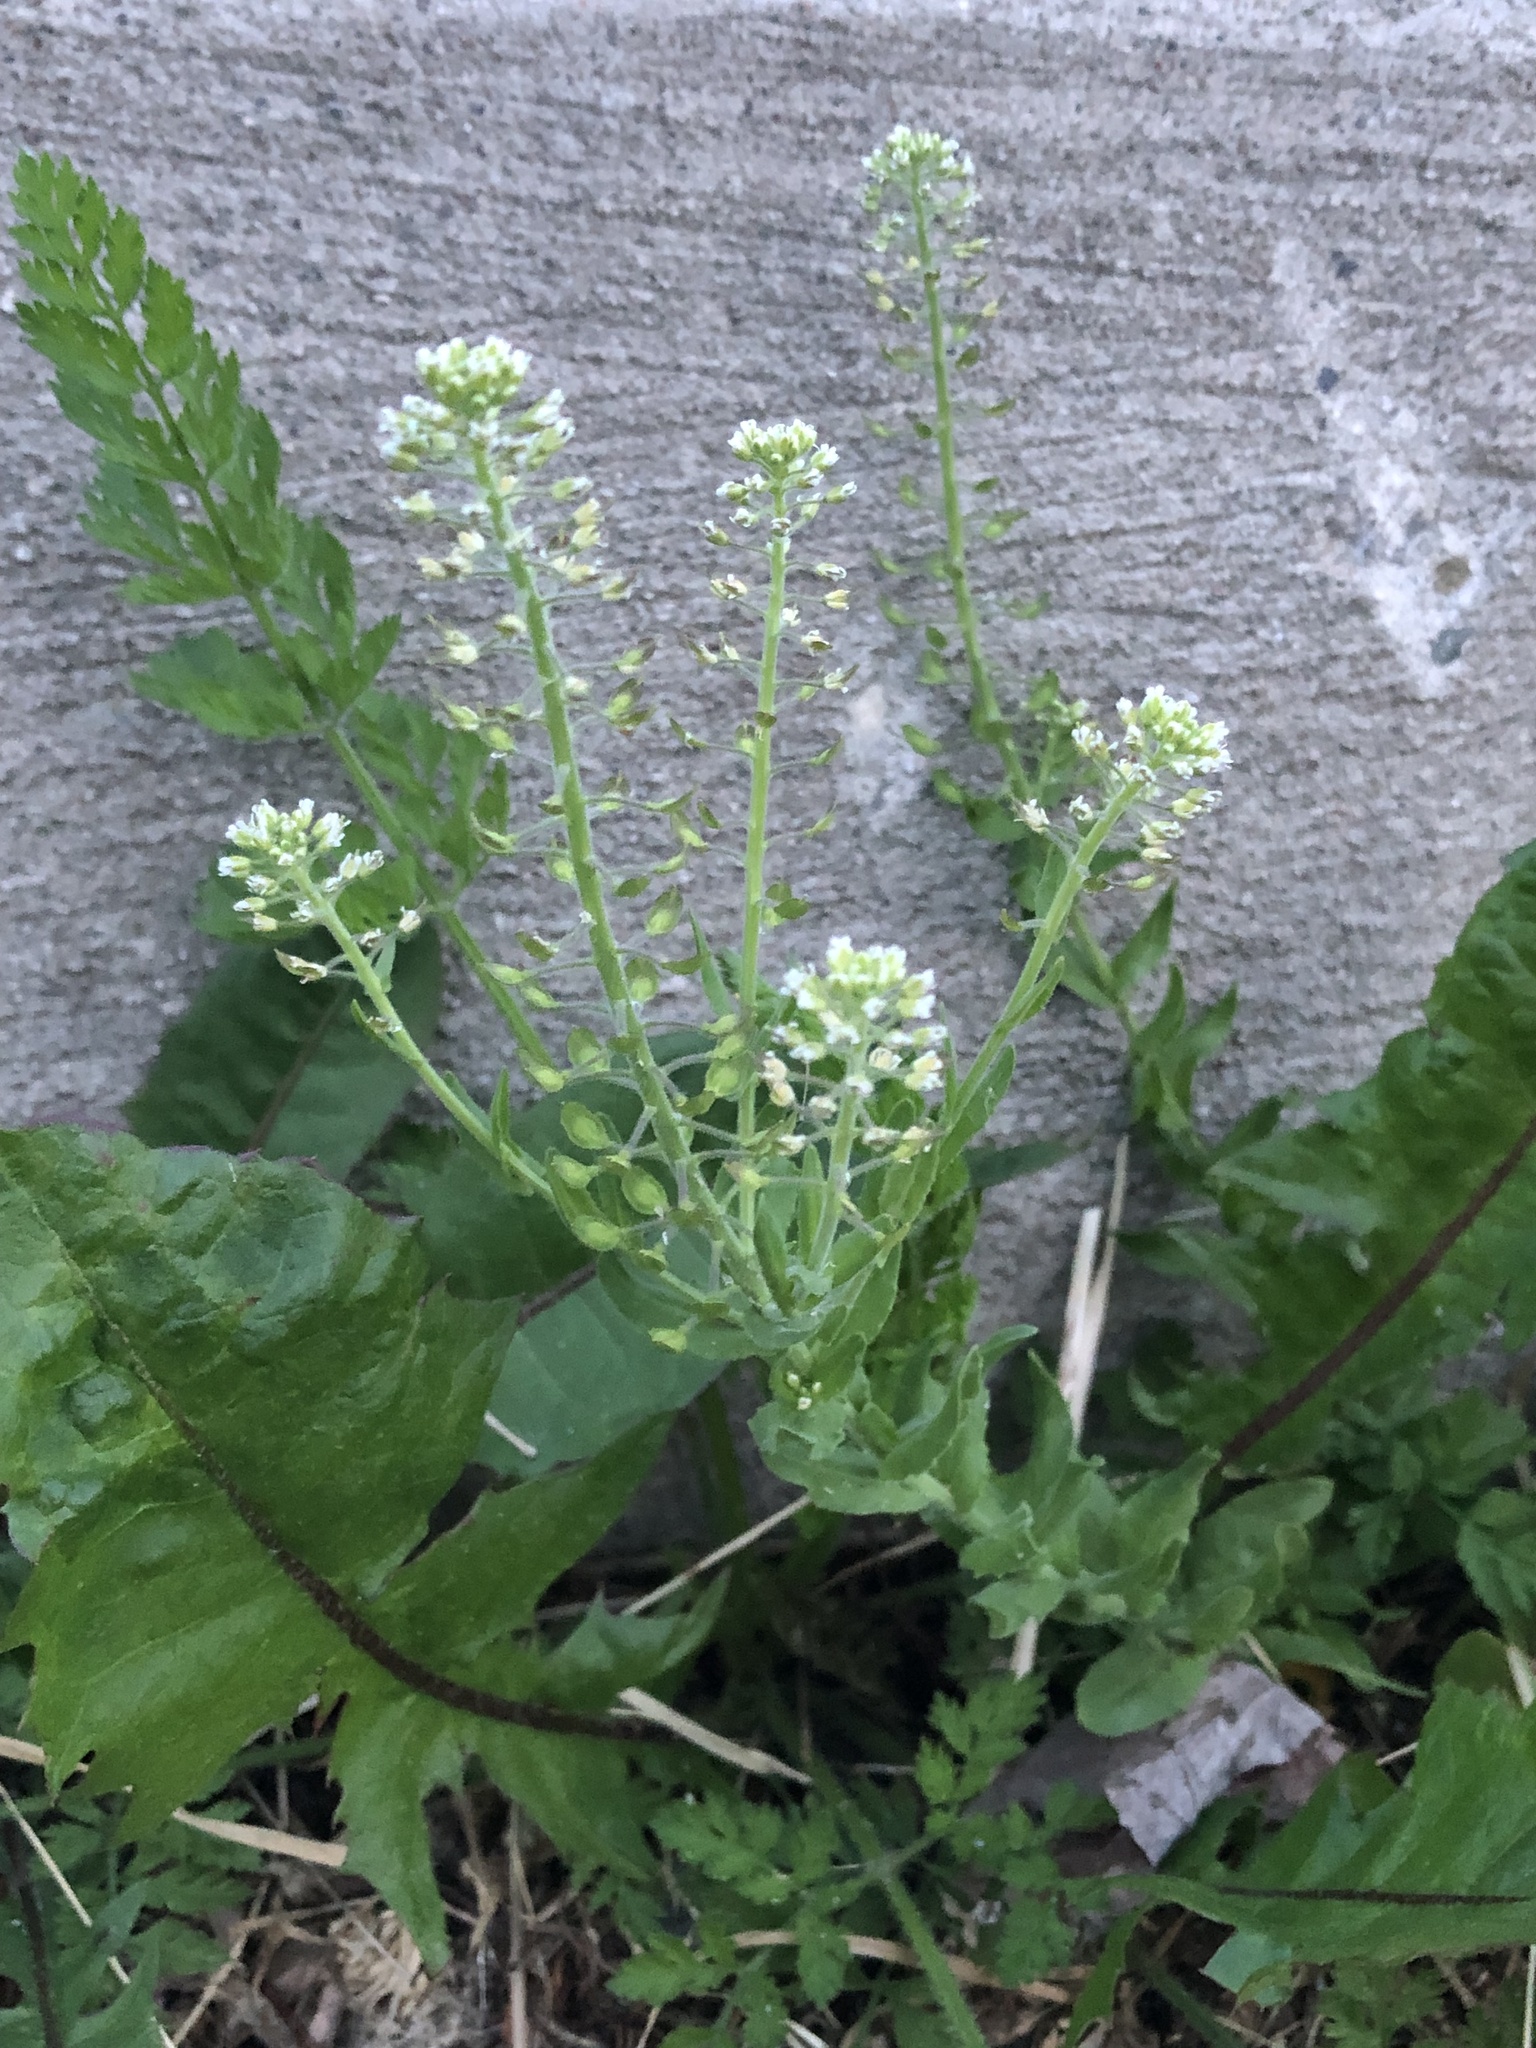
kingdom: Plantae
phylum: Tracheophyta
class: Magnoliopsida
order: Brassicales
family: Brassicaceae
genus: Lepidium
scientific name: Lepidium campestre
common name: Field pepperwort
